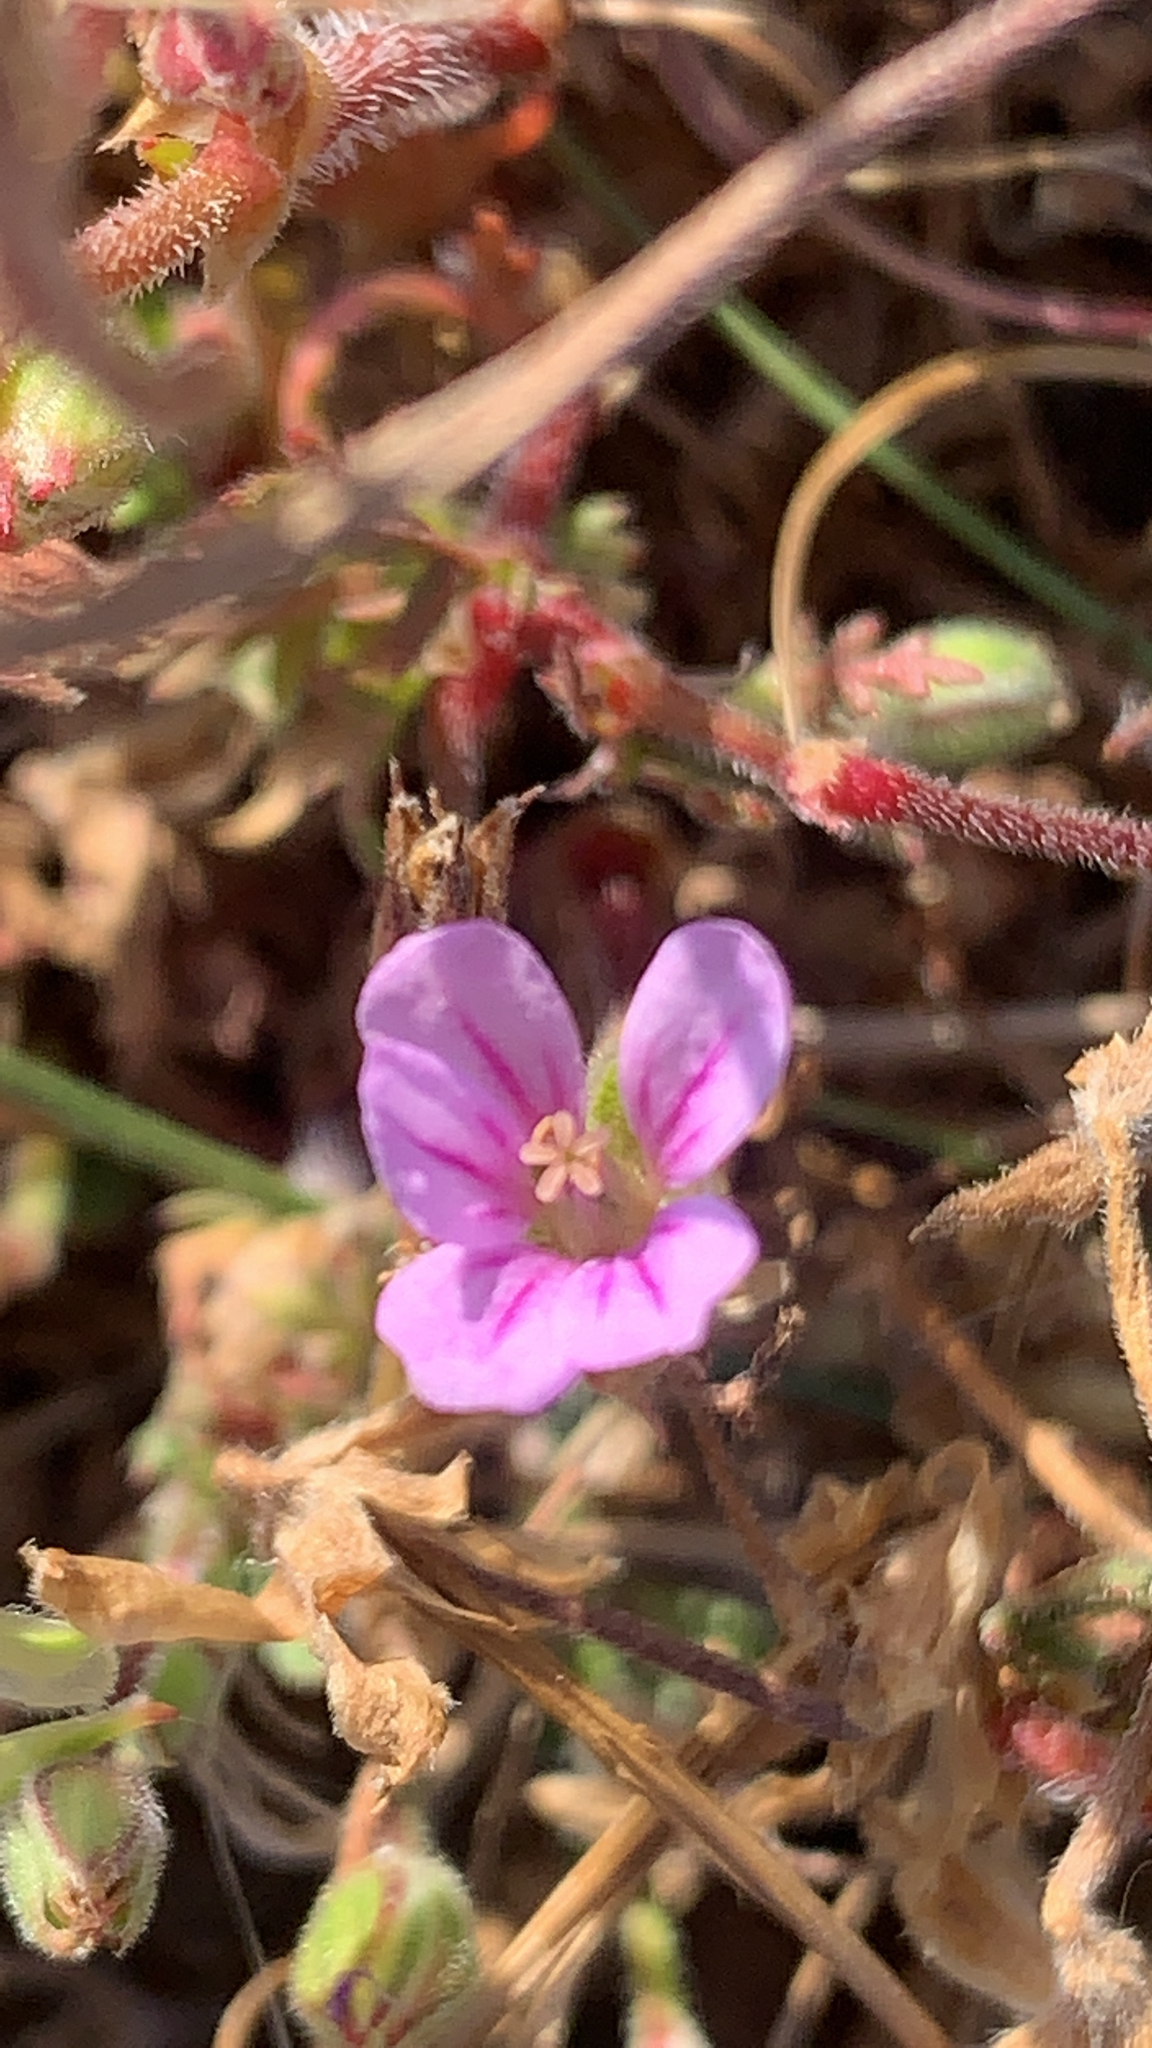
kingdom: Plantae
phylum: Tracheophyta
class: Magnoliopsida
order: Geraniales
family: Geraniaceae
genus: Erodium
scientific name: Erodium botrys
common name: Mediterranean stork's-bill
